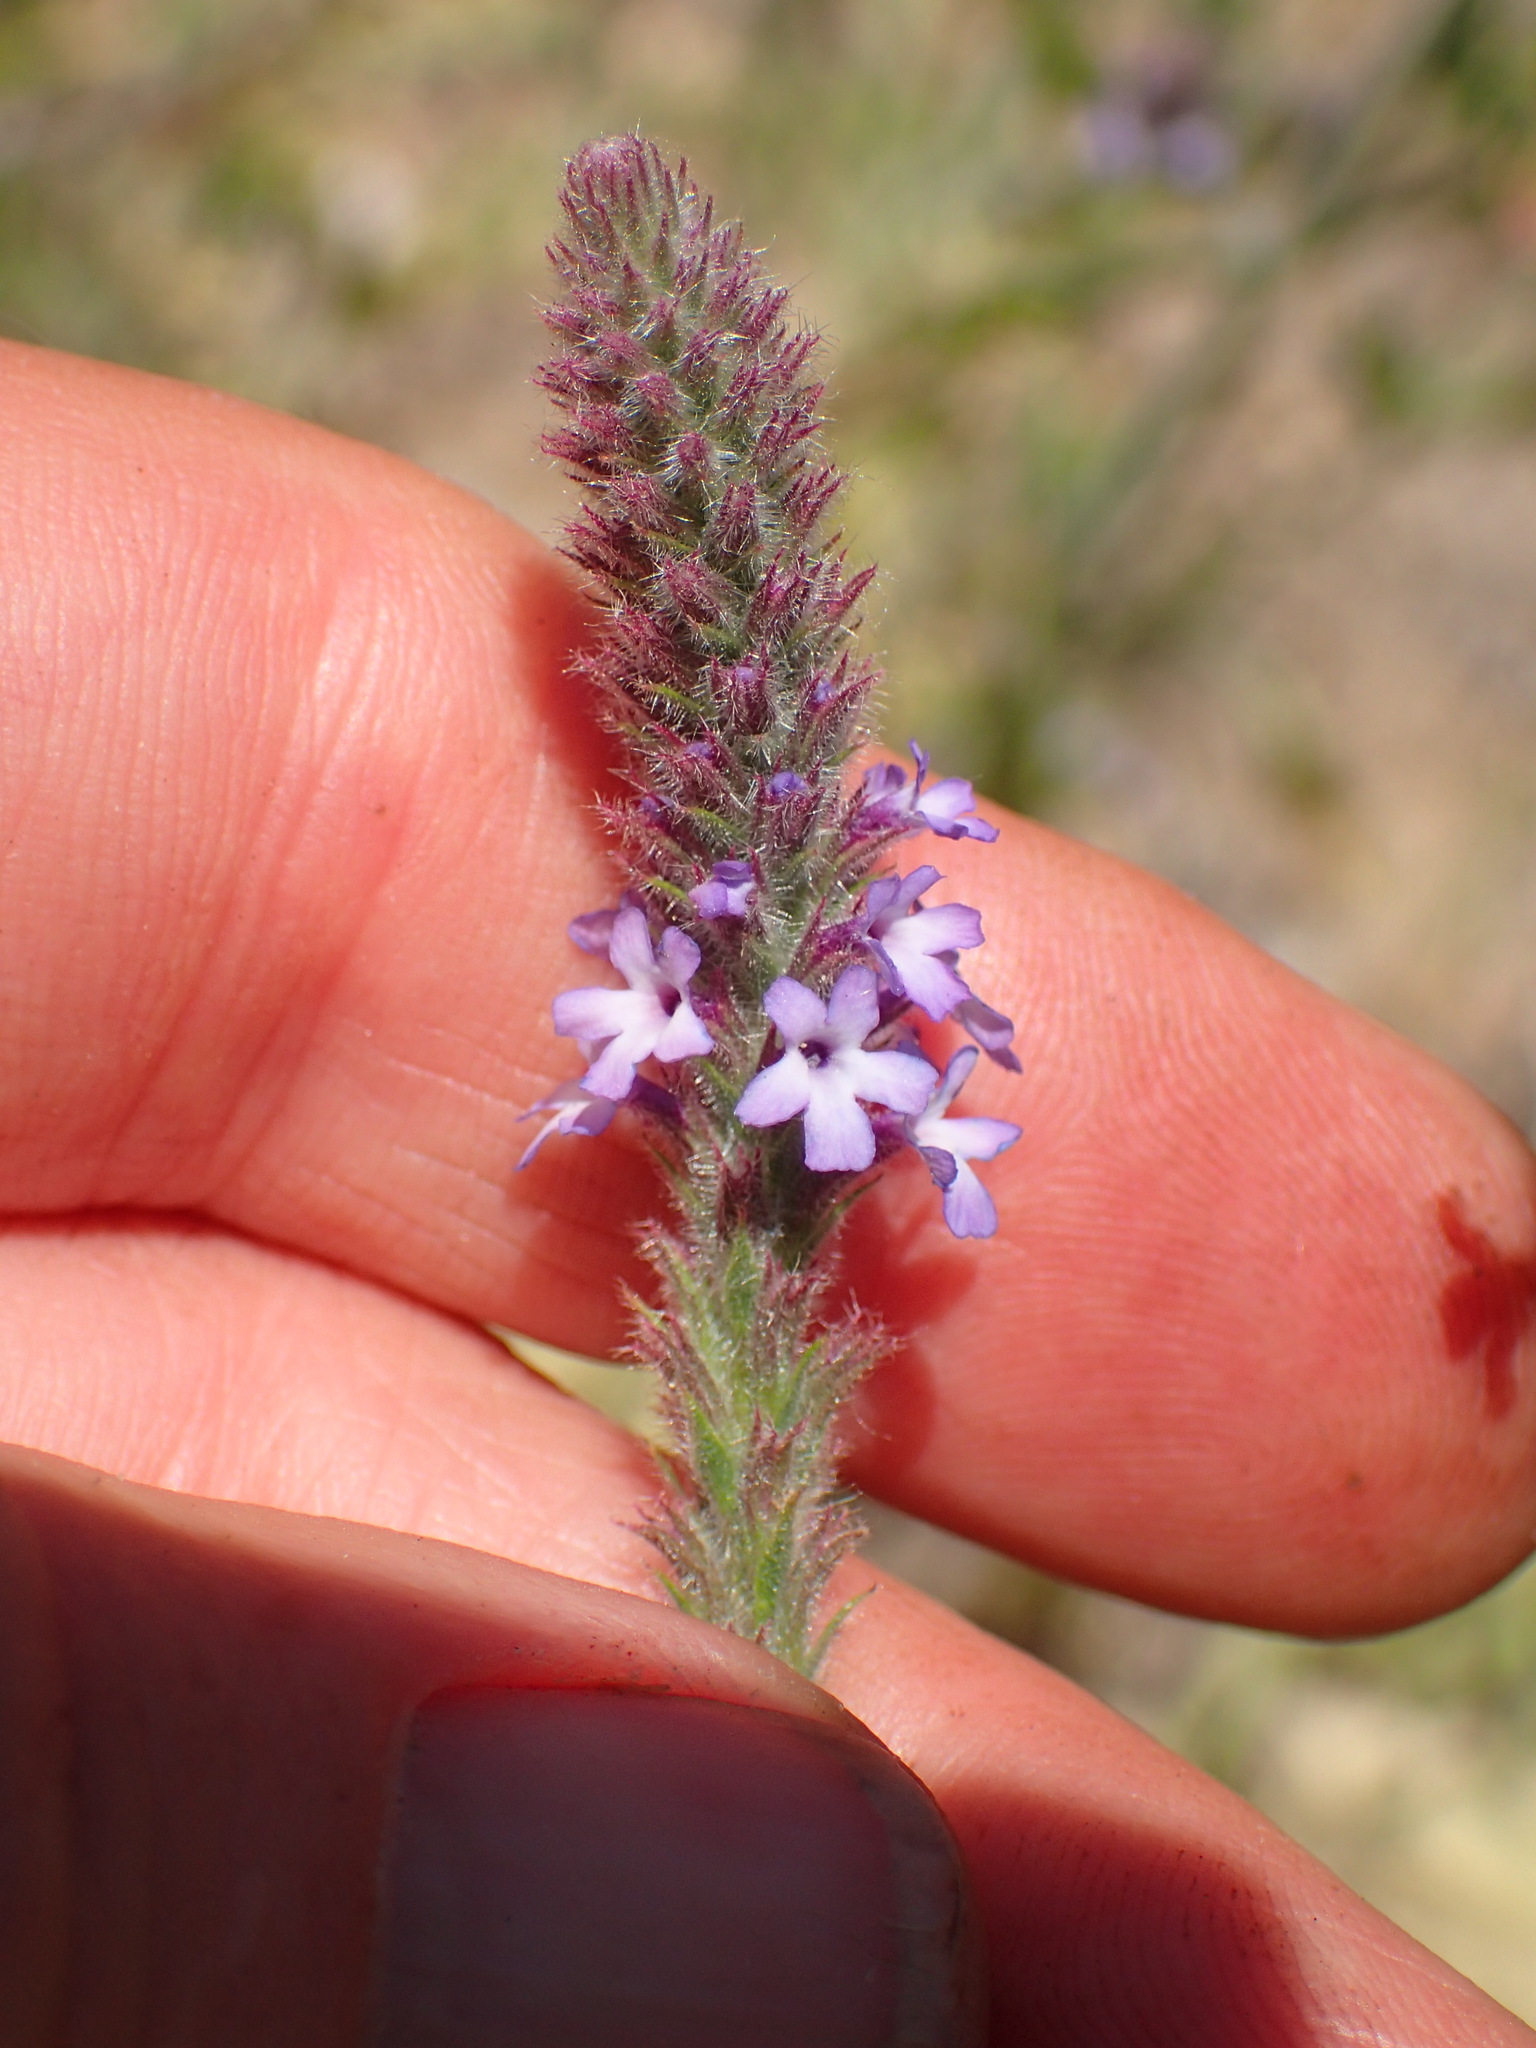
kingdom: Plantae
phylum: Tracheophyta
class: Magnoliopsida
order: Lamiales
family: Verbenaceae
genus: Verbena
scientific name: Verbena lasiostachys
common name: Vervain
